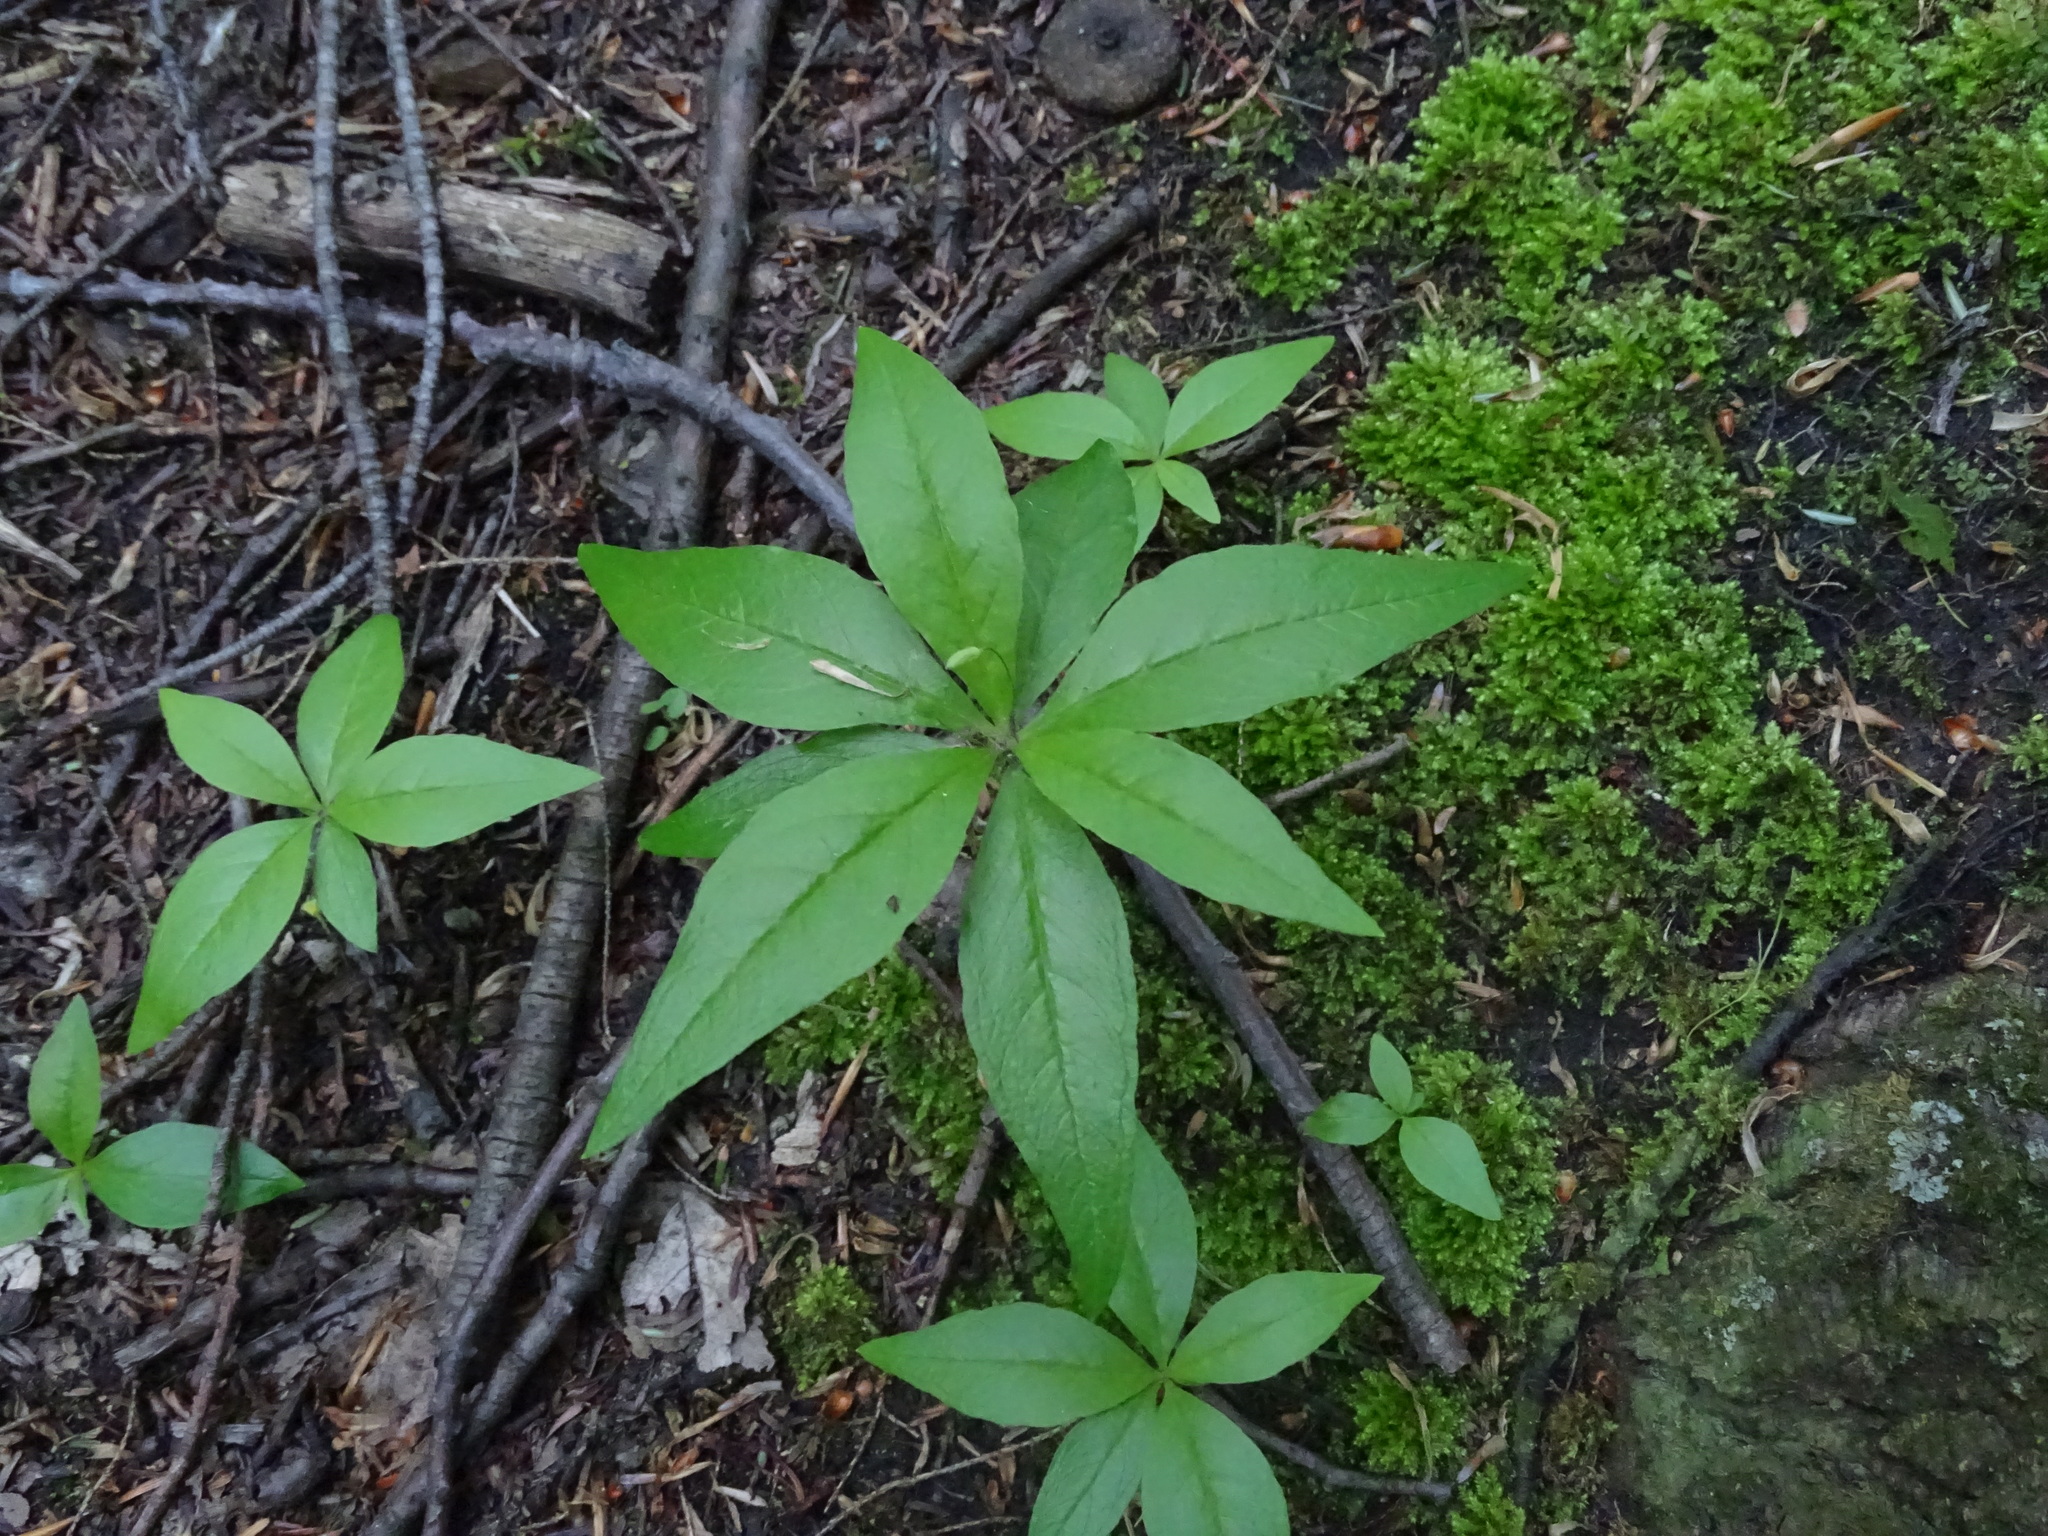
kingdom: Plantae
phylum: Tracheophyta
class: Magnoliopsida
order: Ericales
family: Primulaceae
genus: Lysimachia
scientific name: Lysimachia borealis
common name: American starflower
